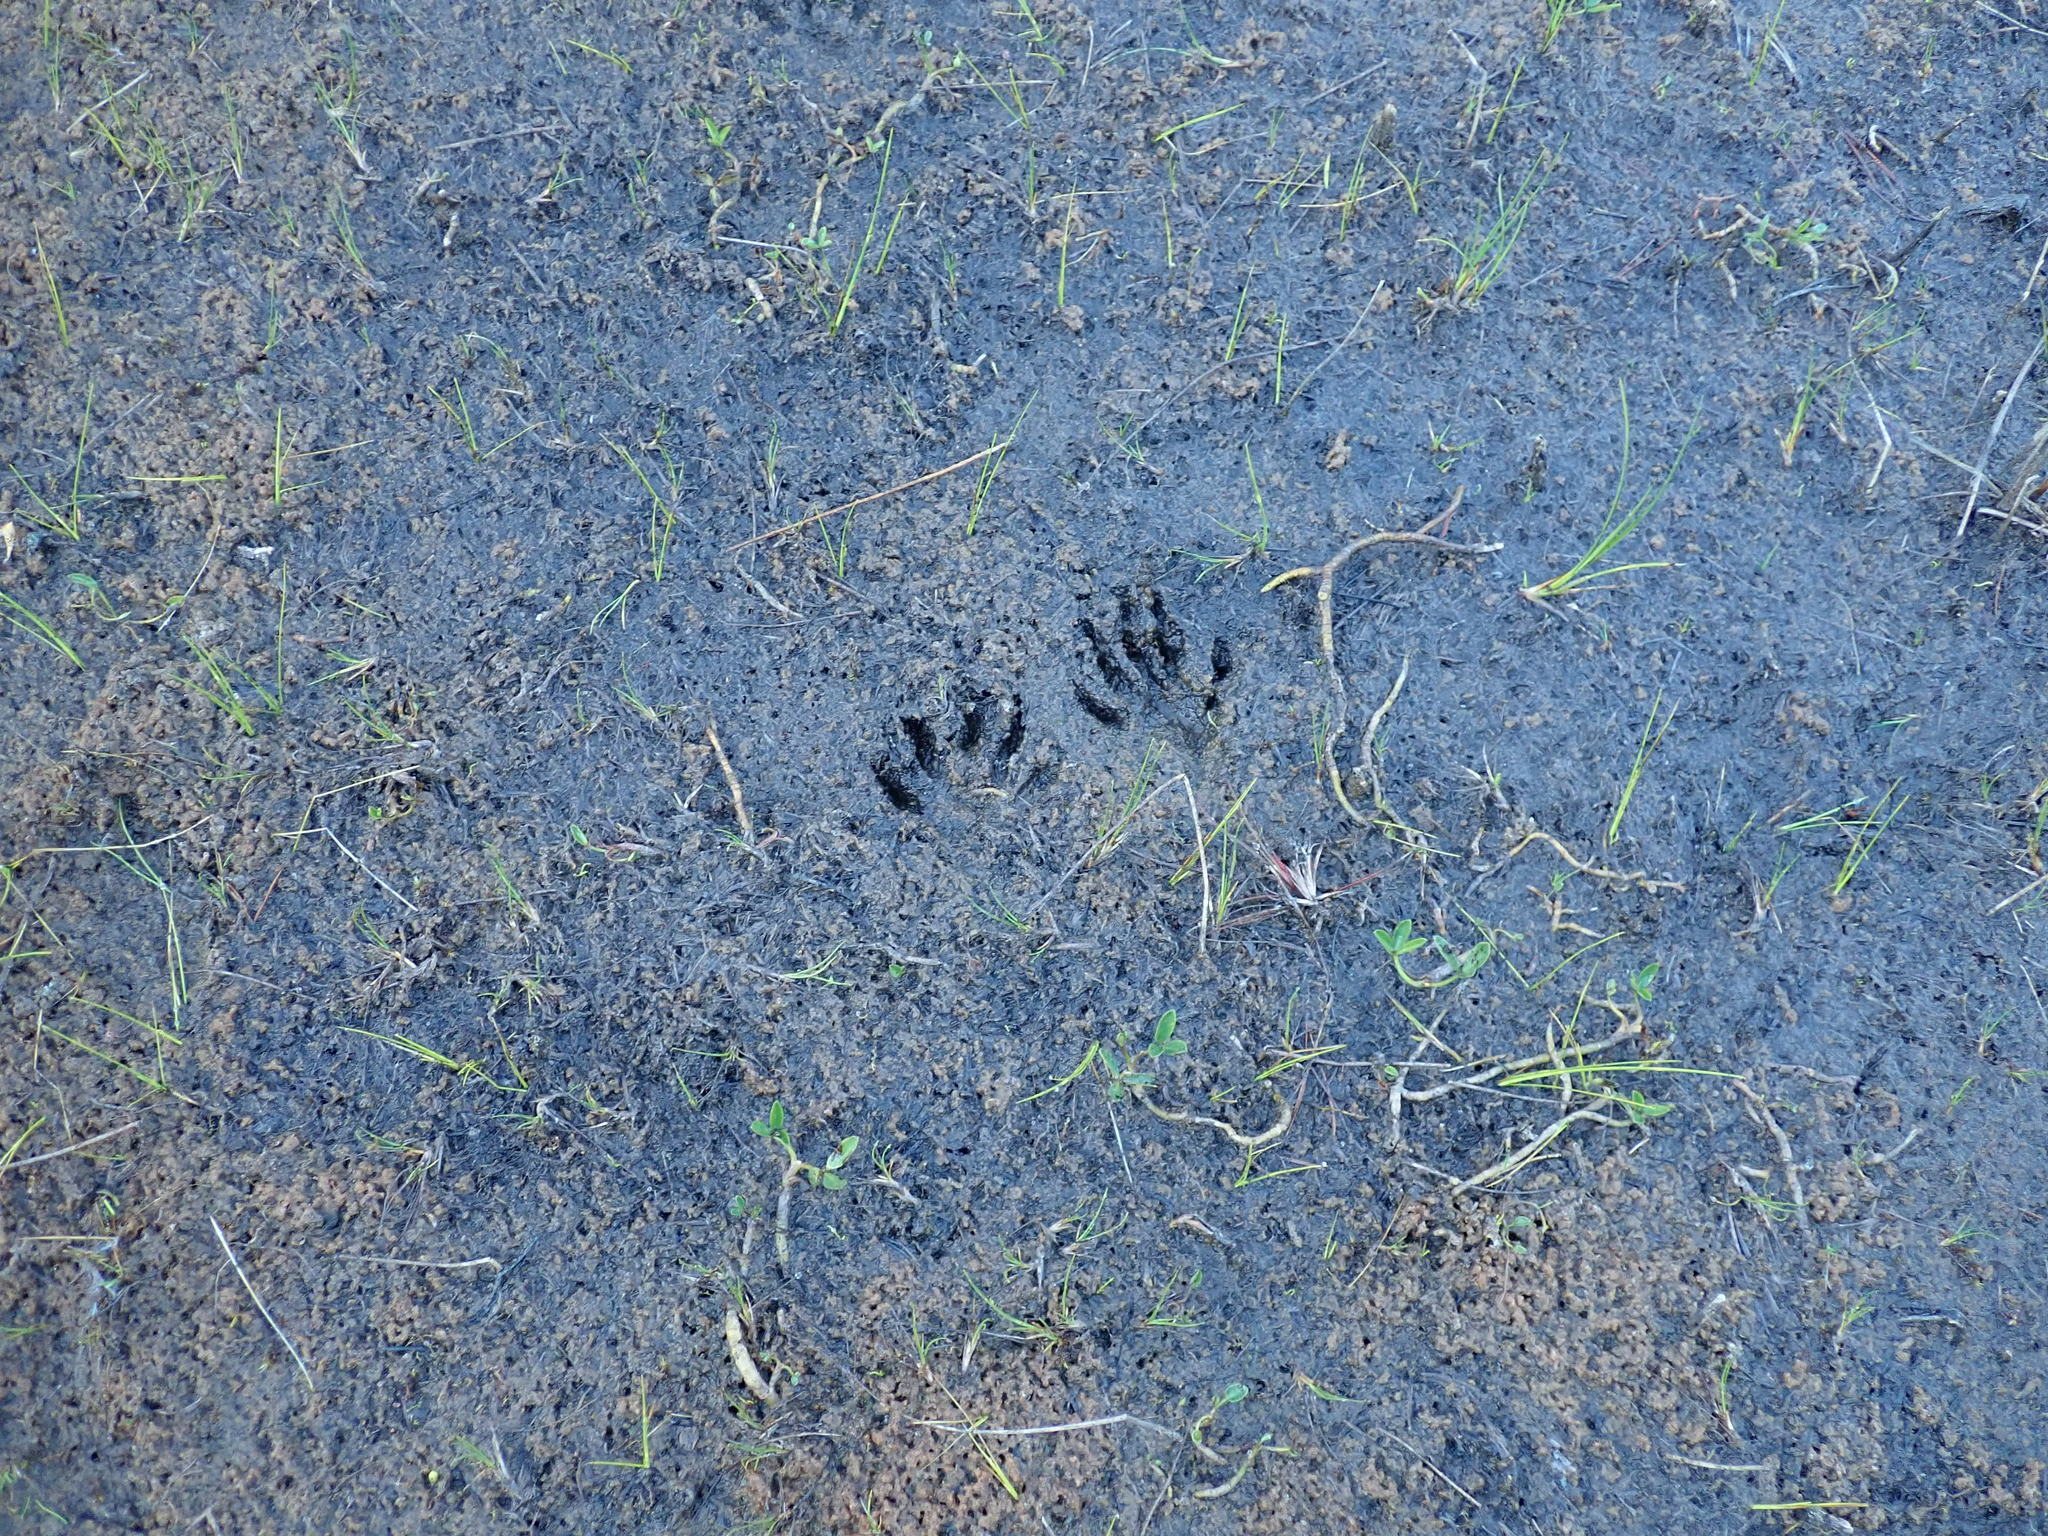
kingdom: Animalia
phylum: Chordata
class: Mammalia
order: Carnivora
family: Procyonidae
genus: Procyon
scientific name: Procyon lotor
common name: Raccoon
